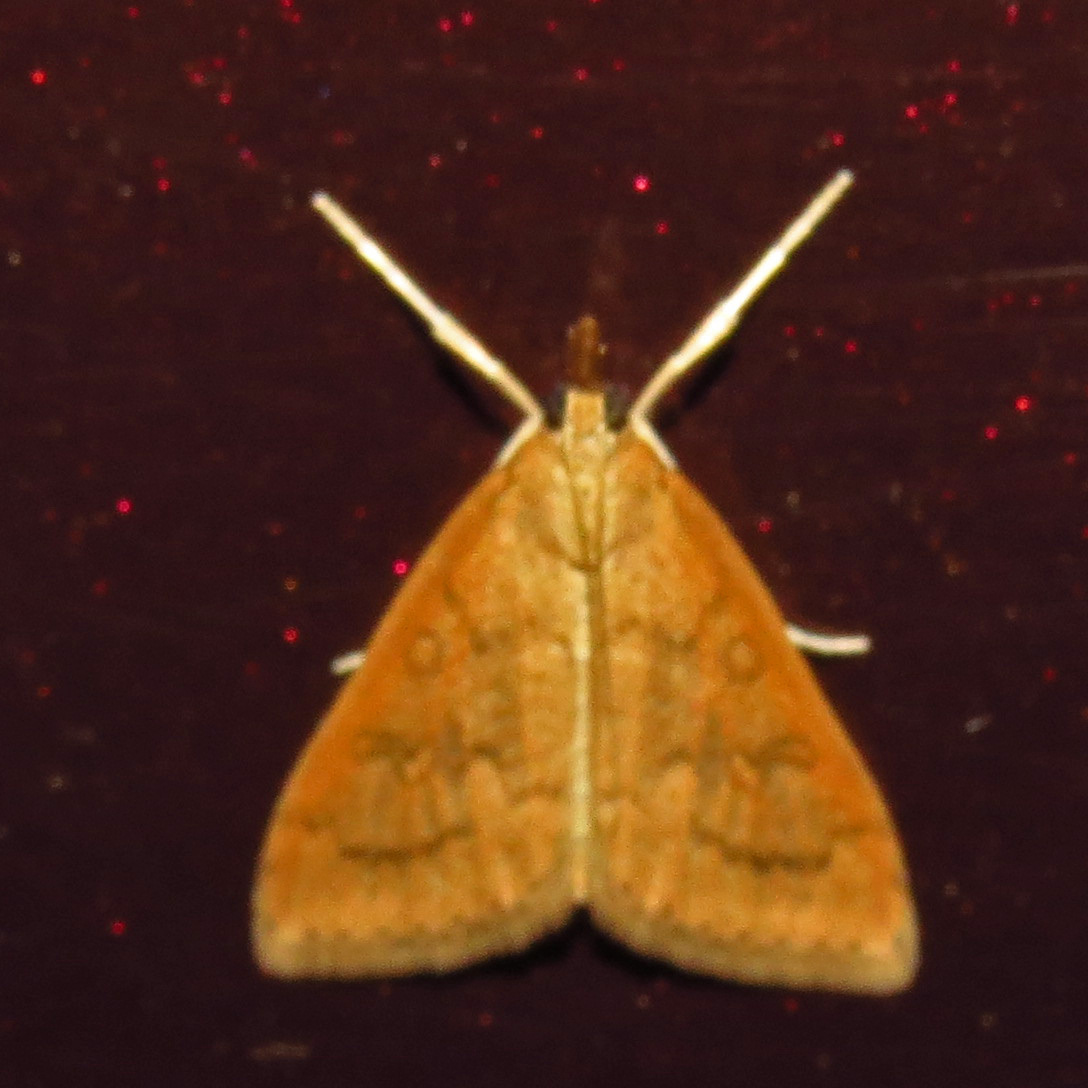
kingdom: Animalia
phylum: Arthropoda
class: Insecta
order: Lepidoptera
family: Crambidae
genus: Udea
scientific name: Udea rubigalis
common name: Celery leaftier moth
